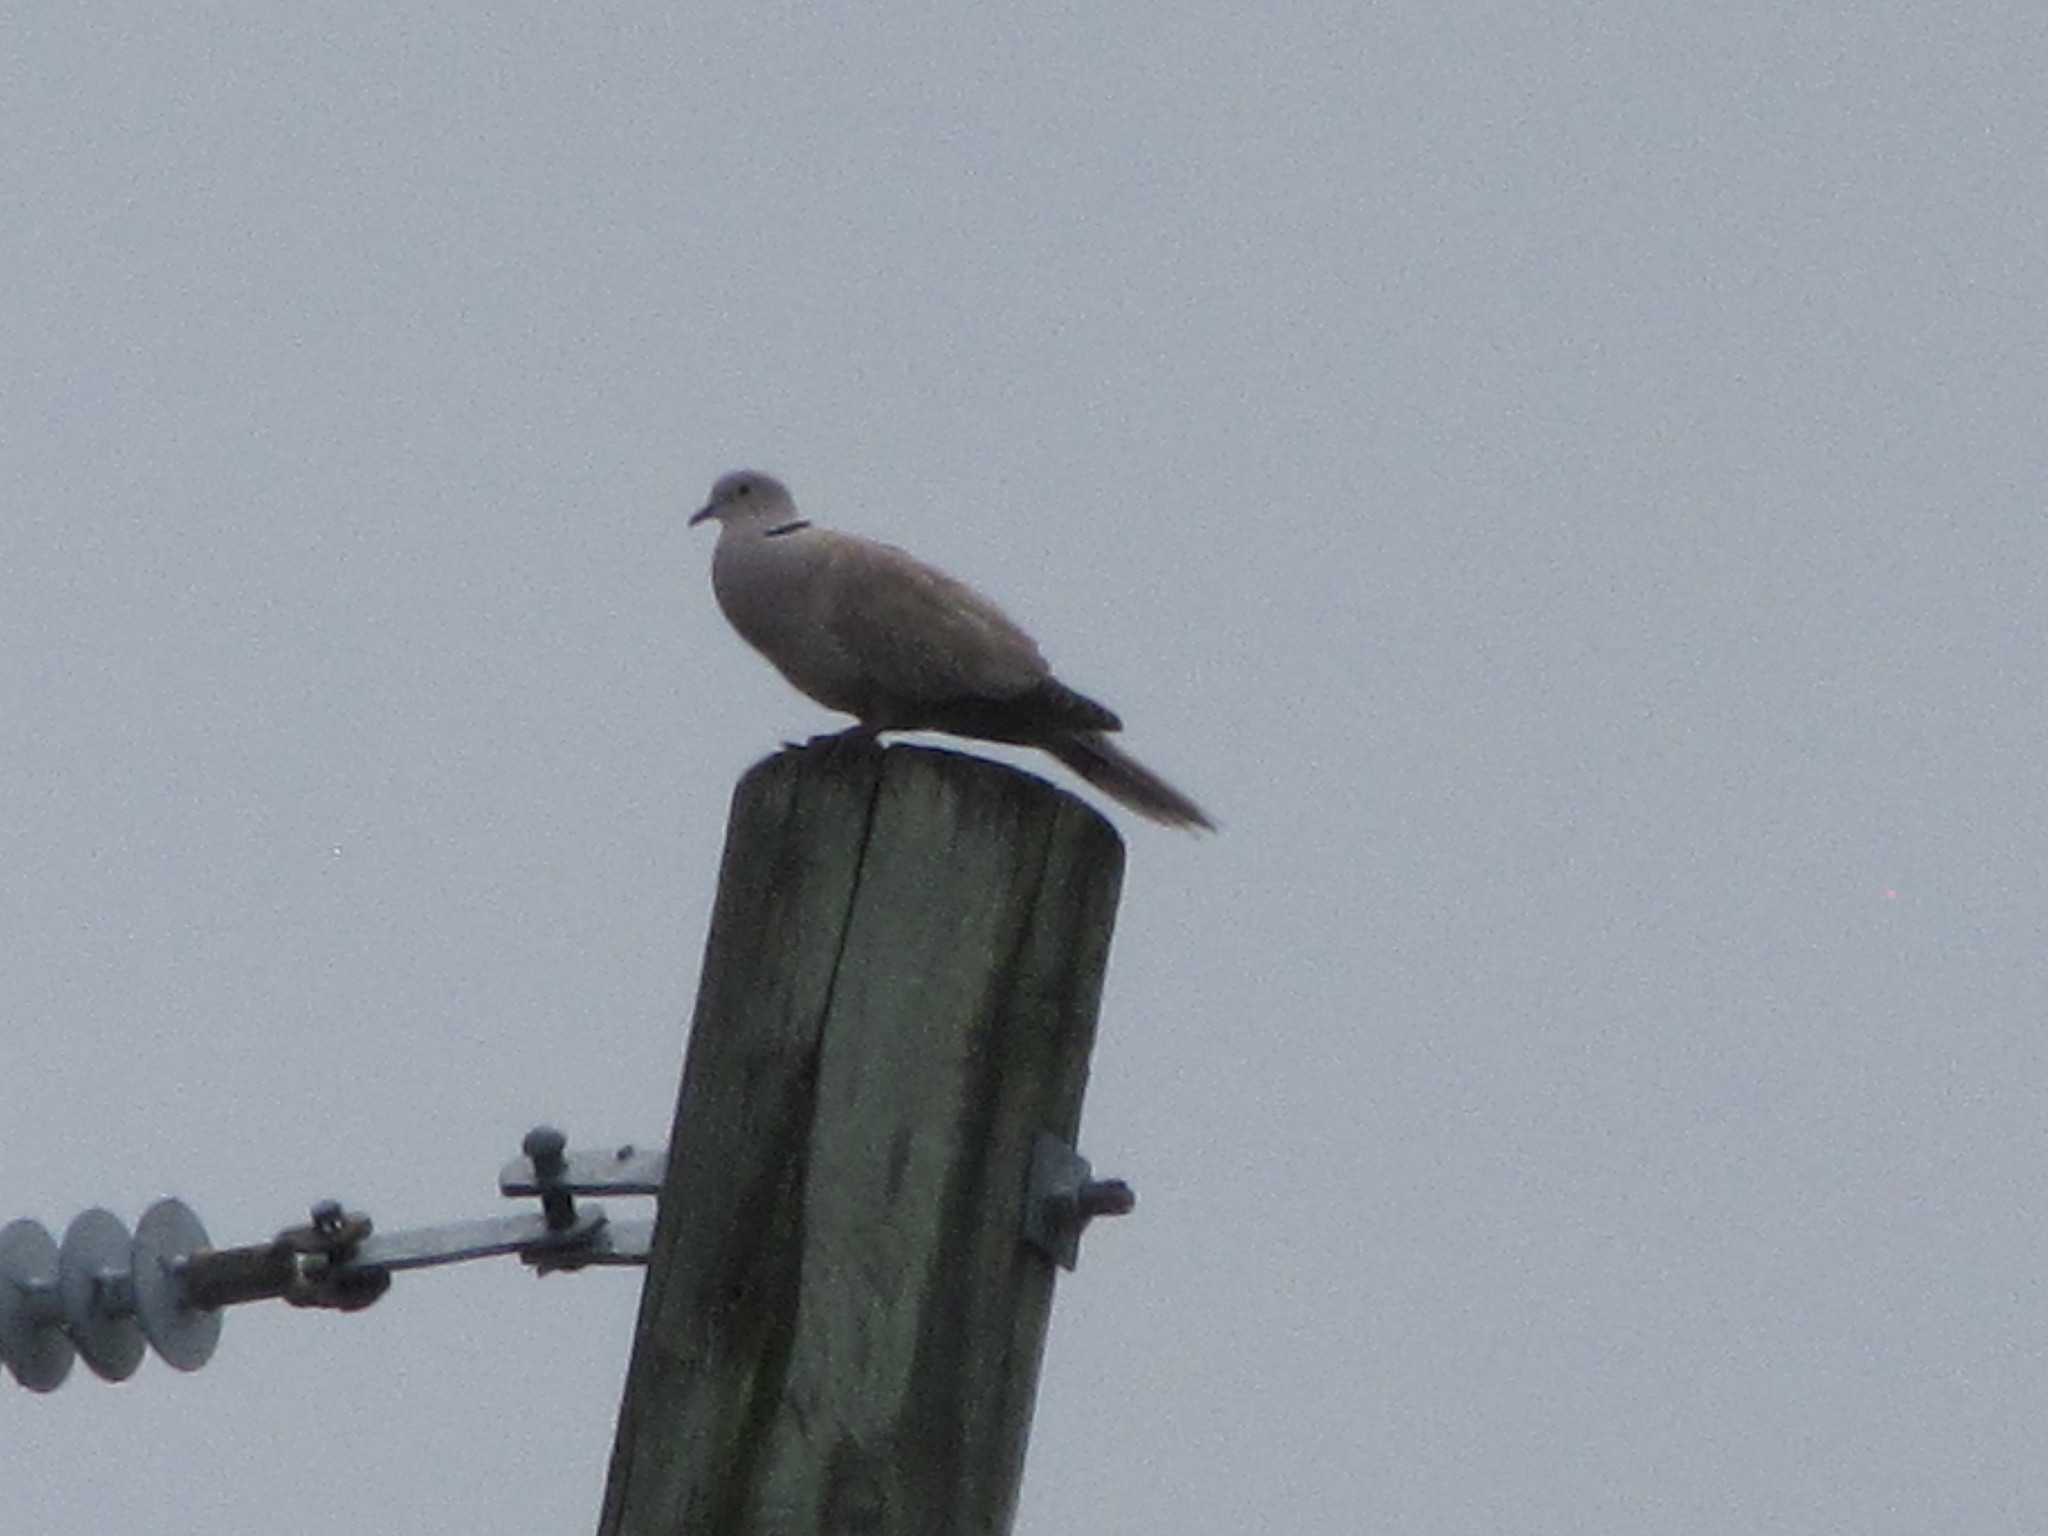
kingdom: Animalia
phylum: Chordata
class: Aves
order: Columbiformes
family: Columbidae
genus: Streptopelia
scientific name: Streptopelia decaocto
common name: Eurasian collared dove
